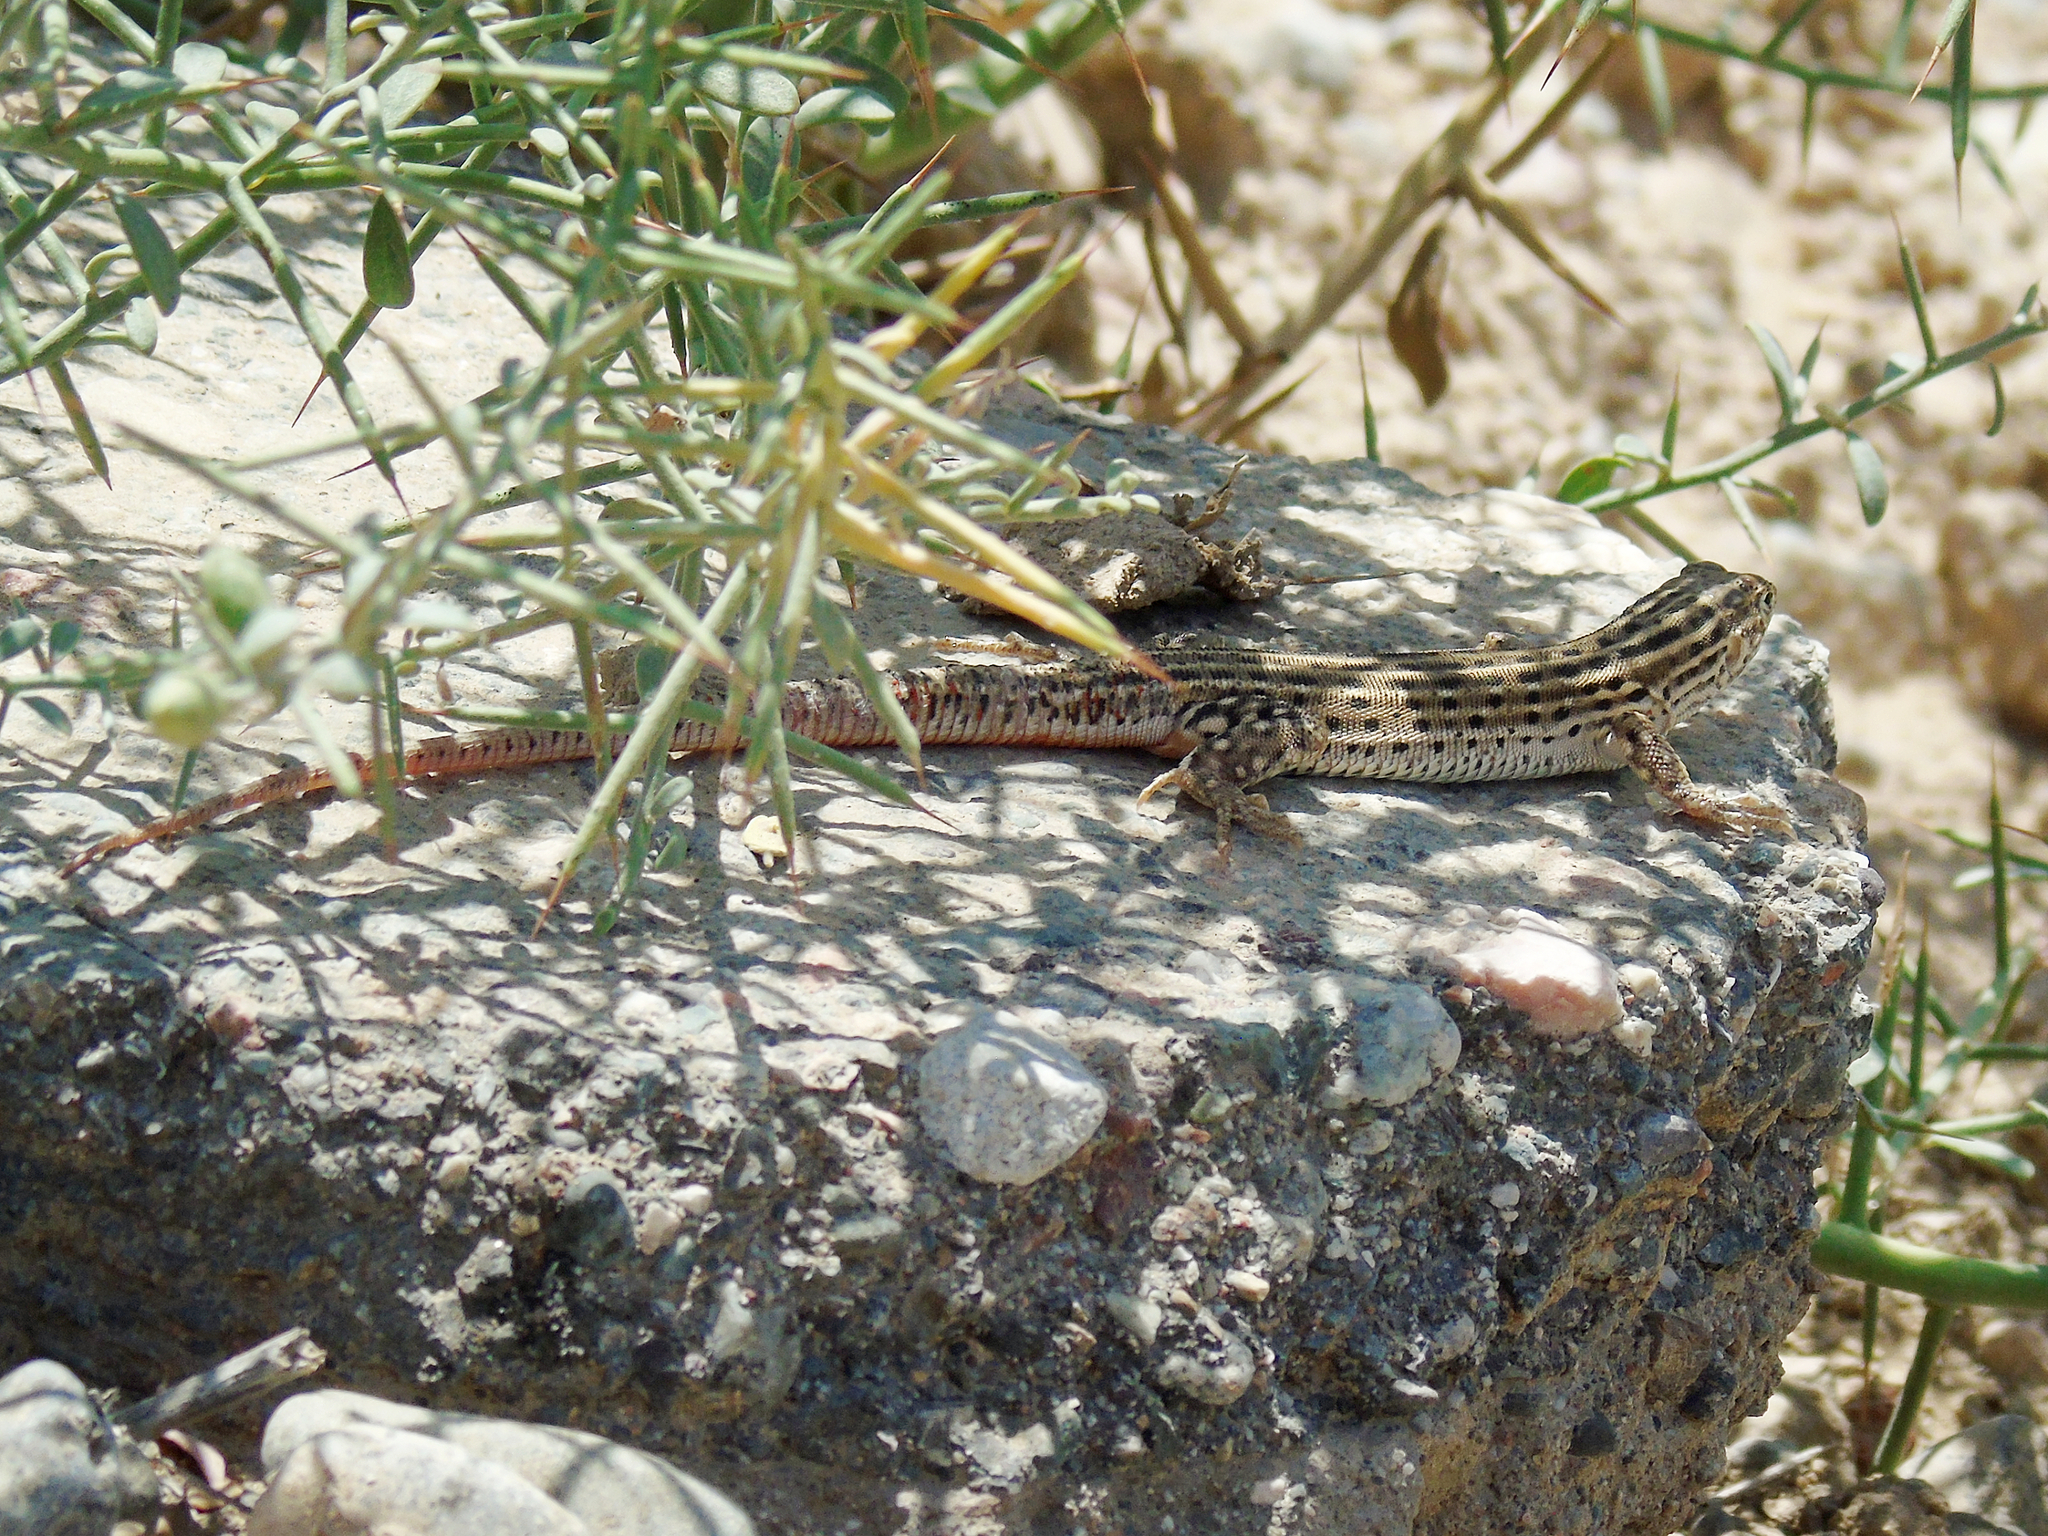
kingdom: Animalia
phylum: Chordata
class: Squamata
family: Lacertidae
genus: Eremias
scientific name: Eremias velox
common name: Central asian racerunner
